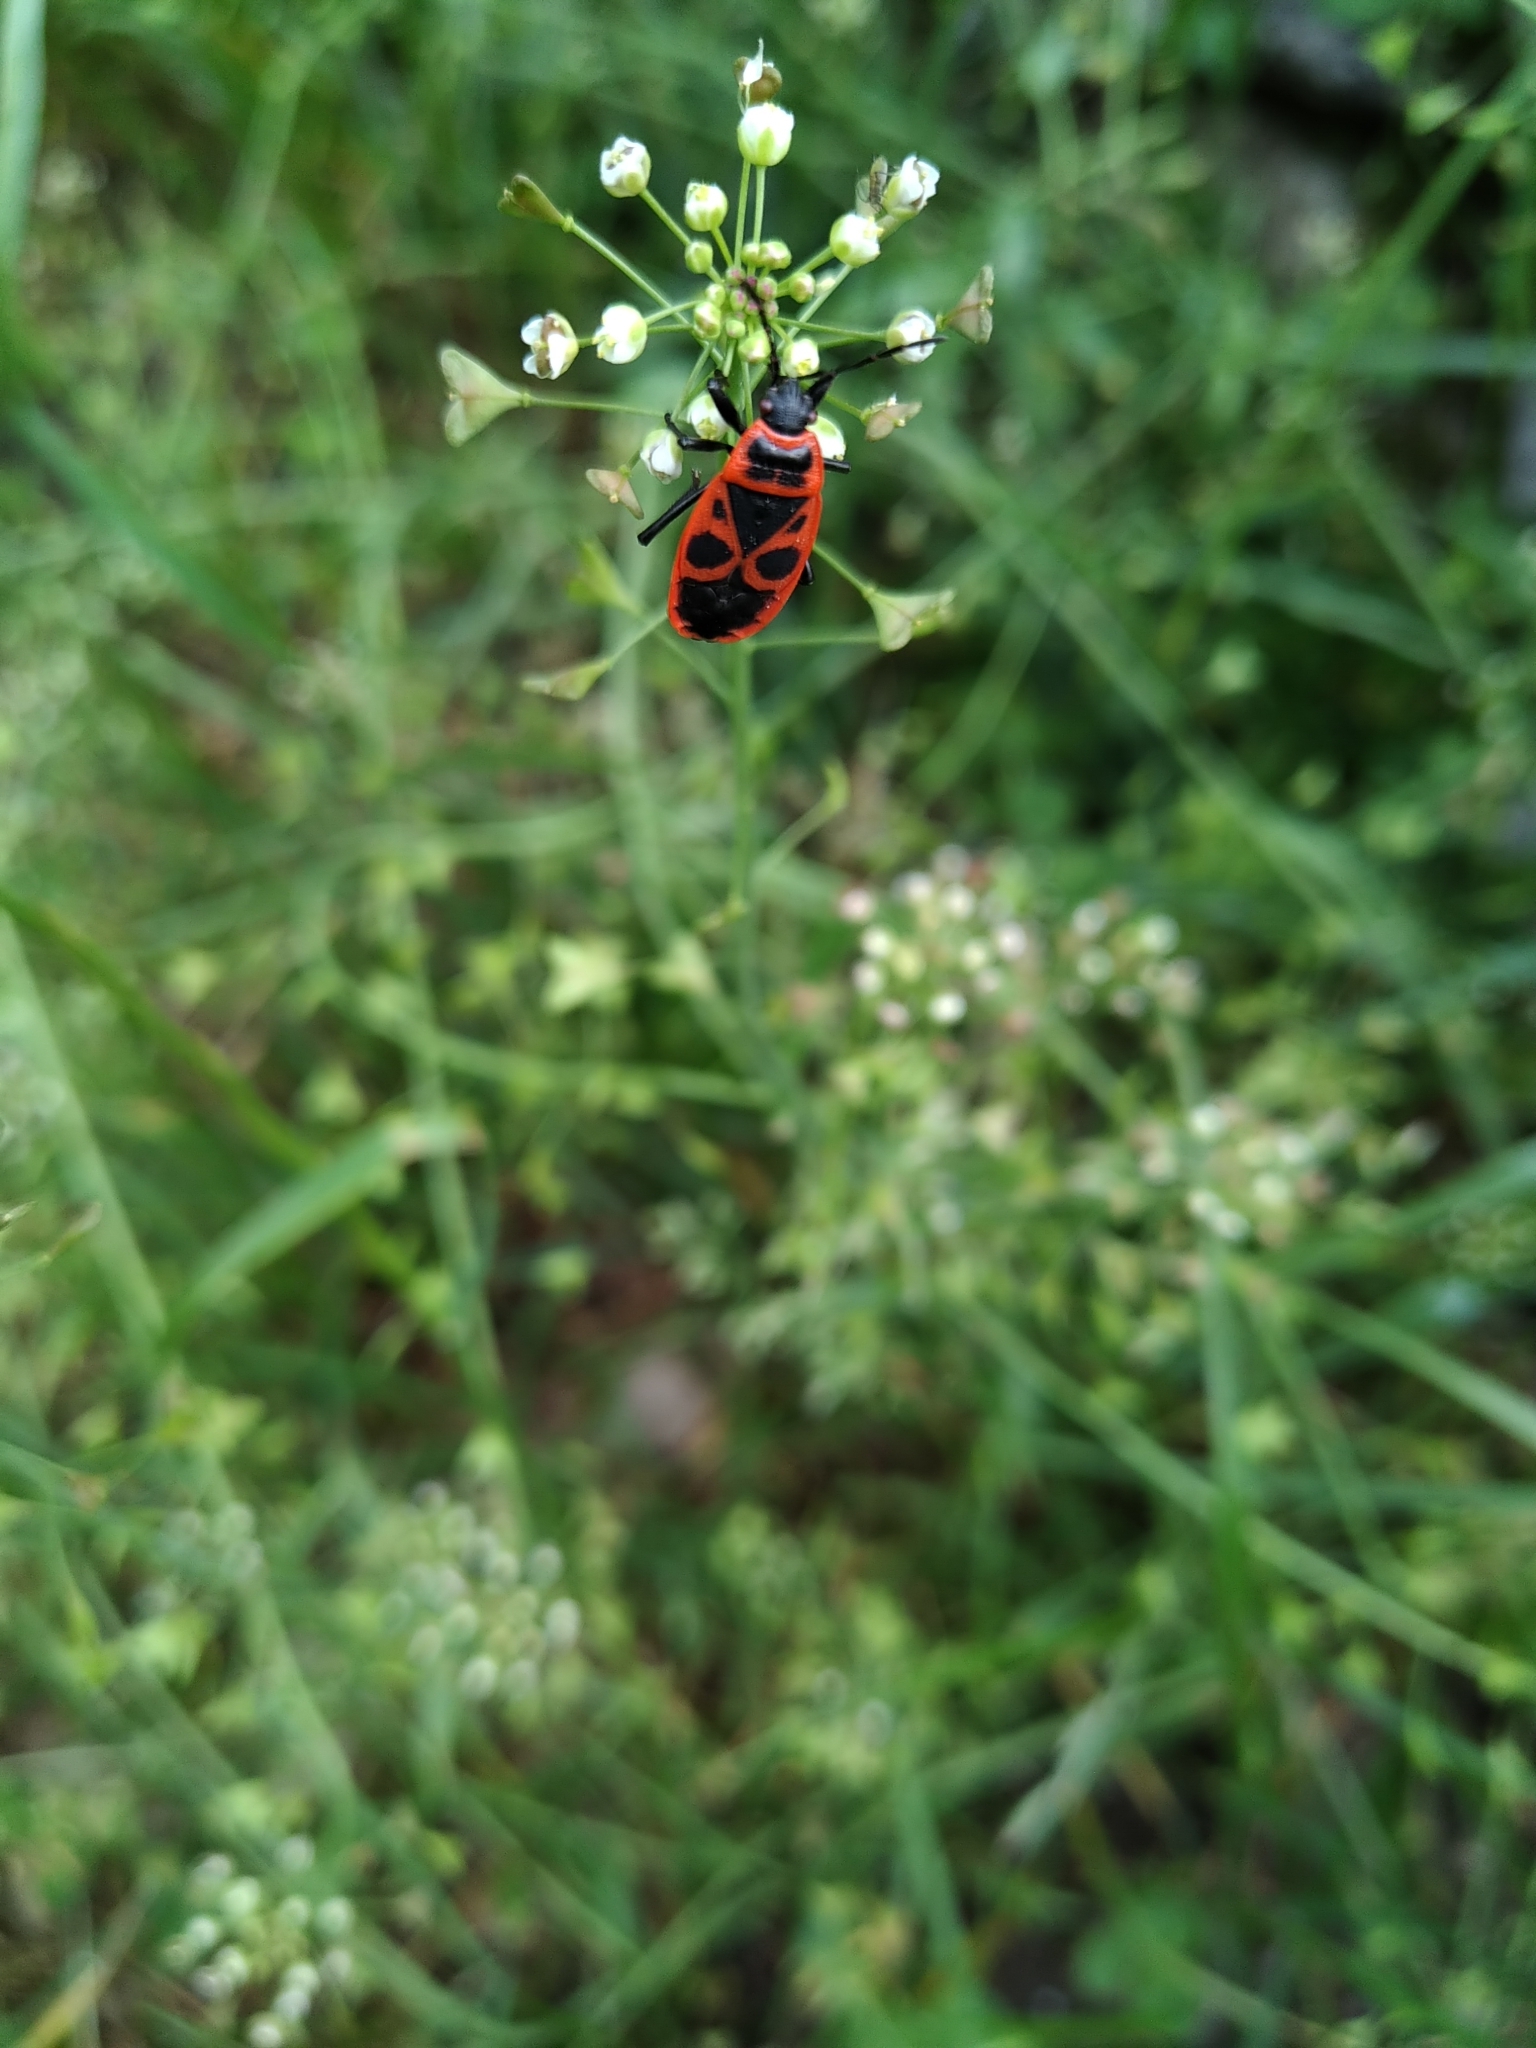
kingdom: Animalia
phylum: Arthropoda
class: Insecta
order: Hemiptera
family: Pyrrhocoridae
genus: Pyrrhocoris
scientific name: Pyrrhocoris apterus
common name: Firebug
